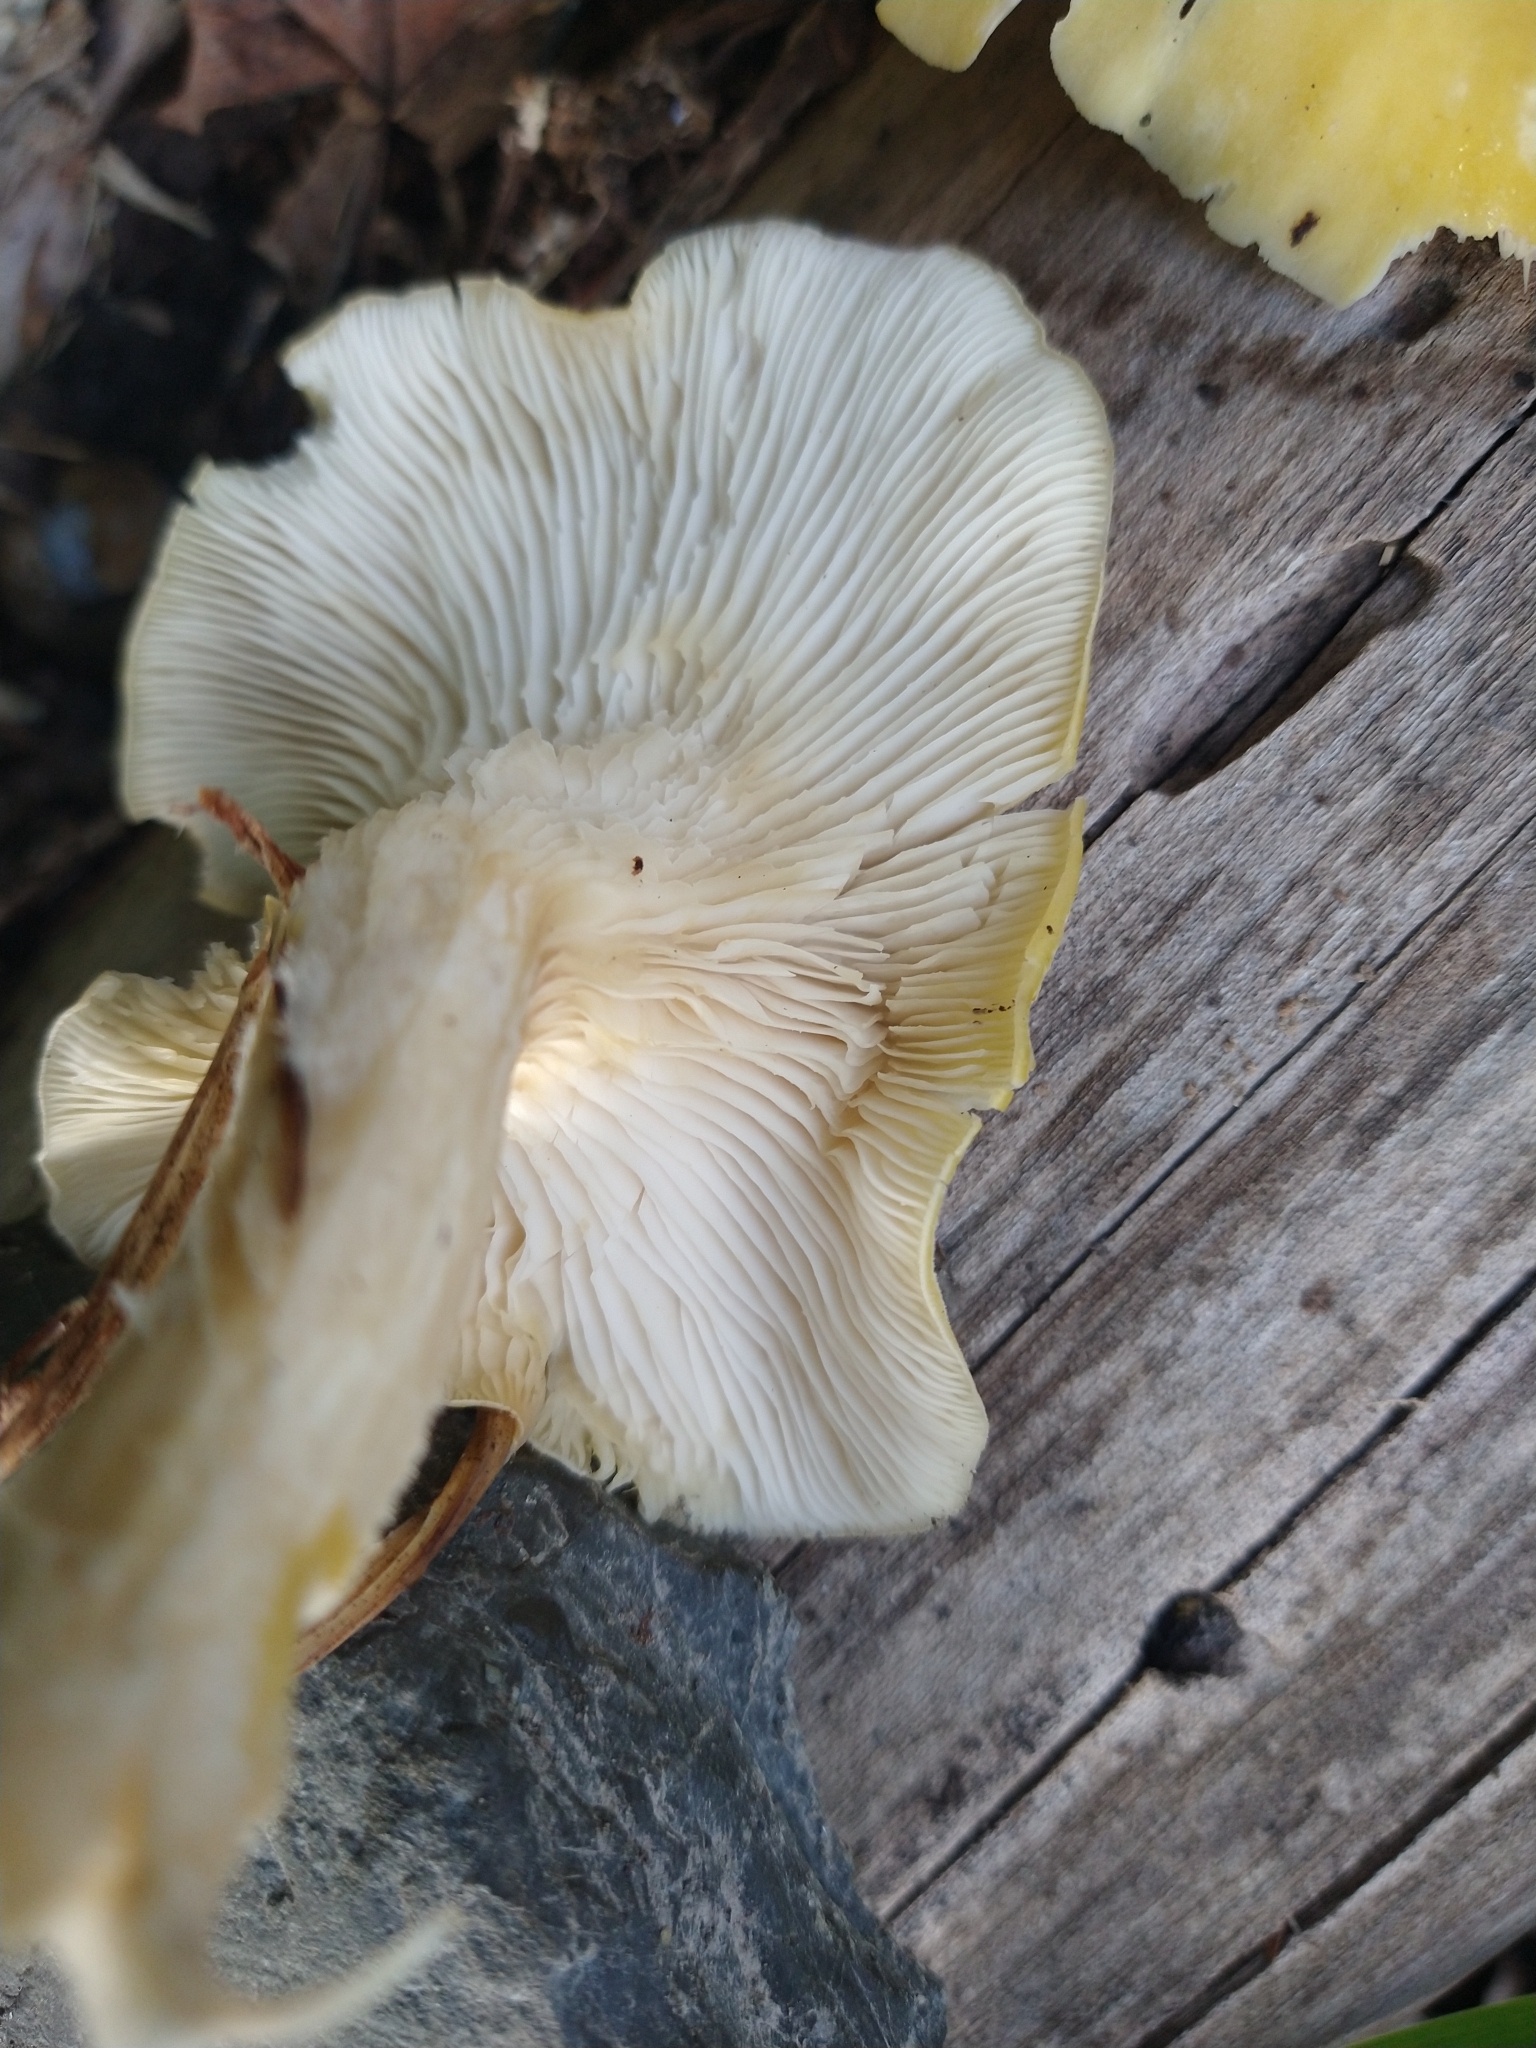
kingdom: Fungi
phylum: Basidiomycota
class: Agaricomycetes
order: Agaricales
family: Pleurotaceae
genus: Pleurotus
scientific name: Pleurotus citrinopileatus
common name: Golden oyster mushroom
